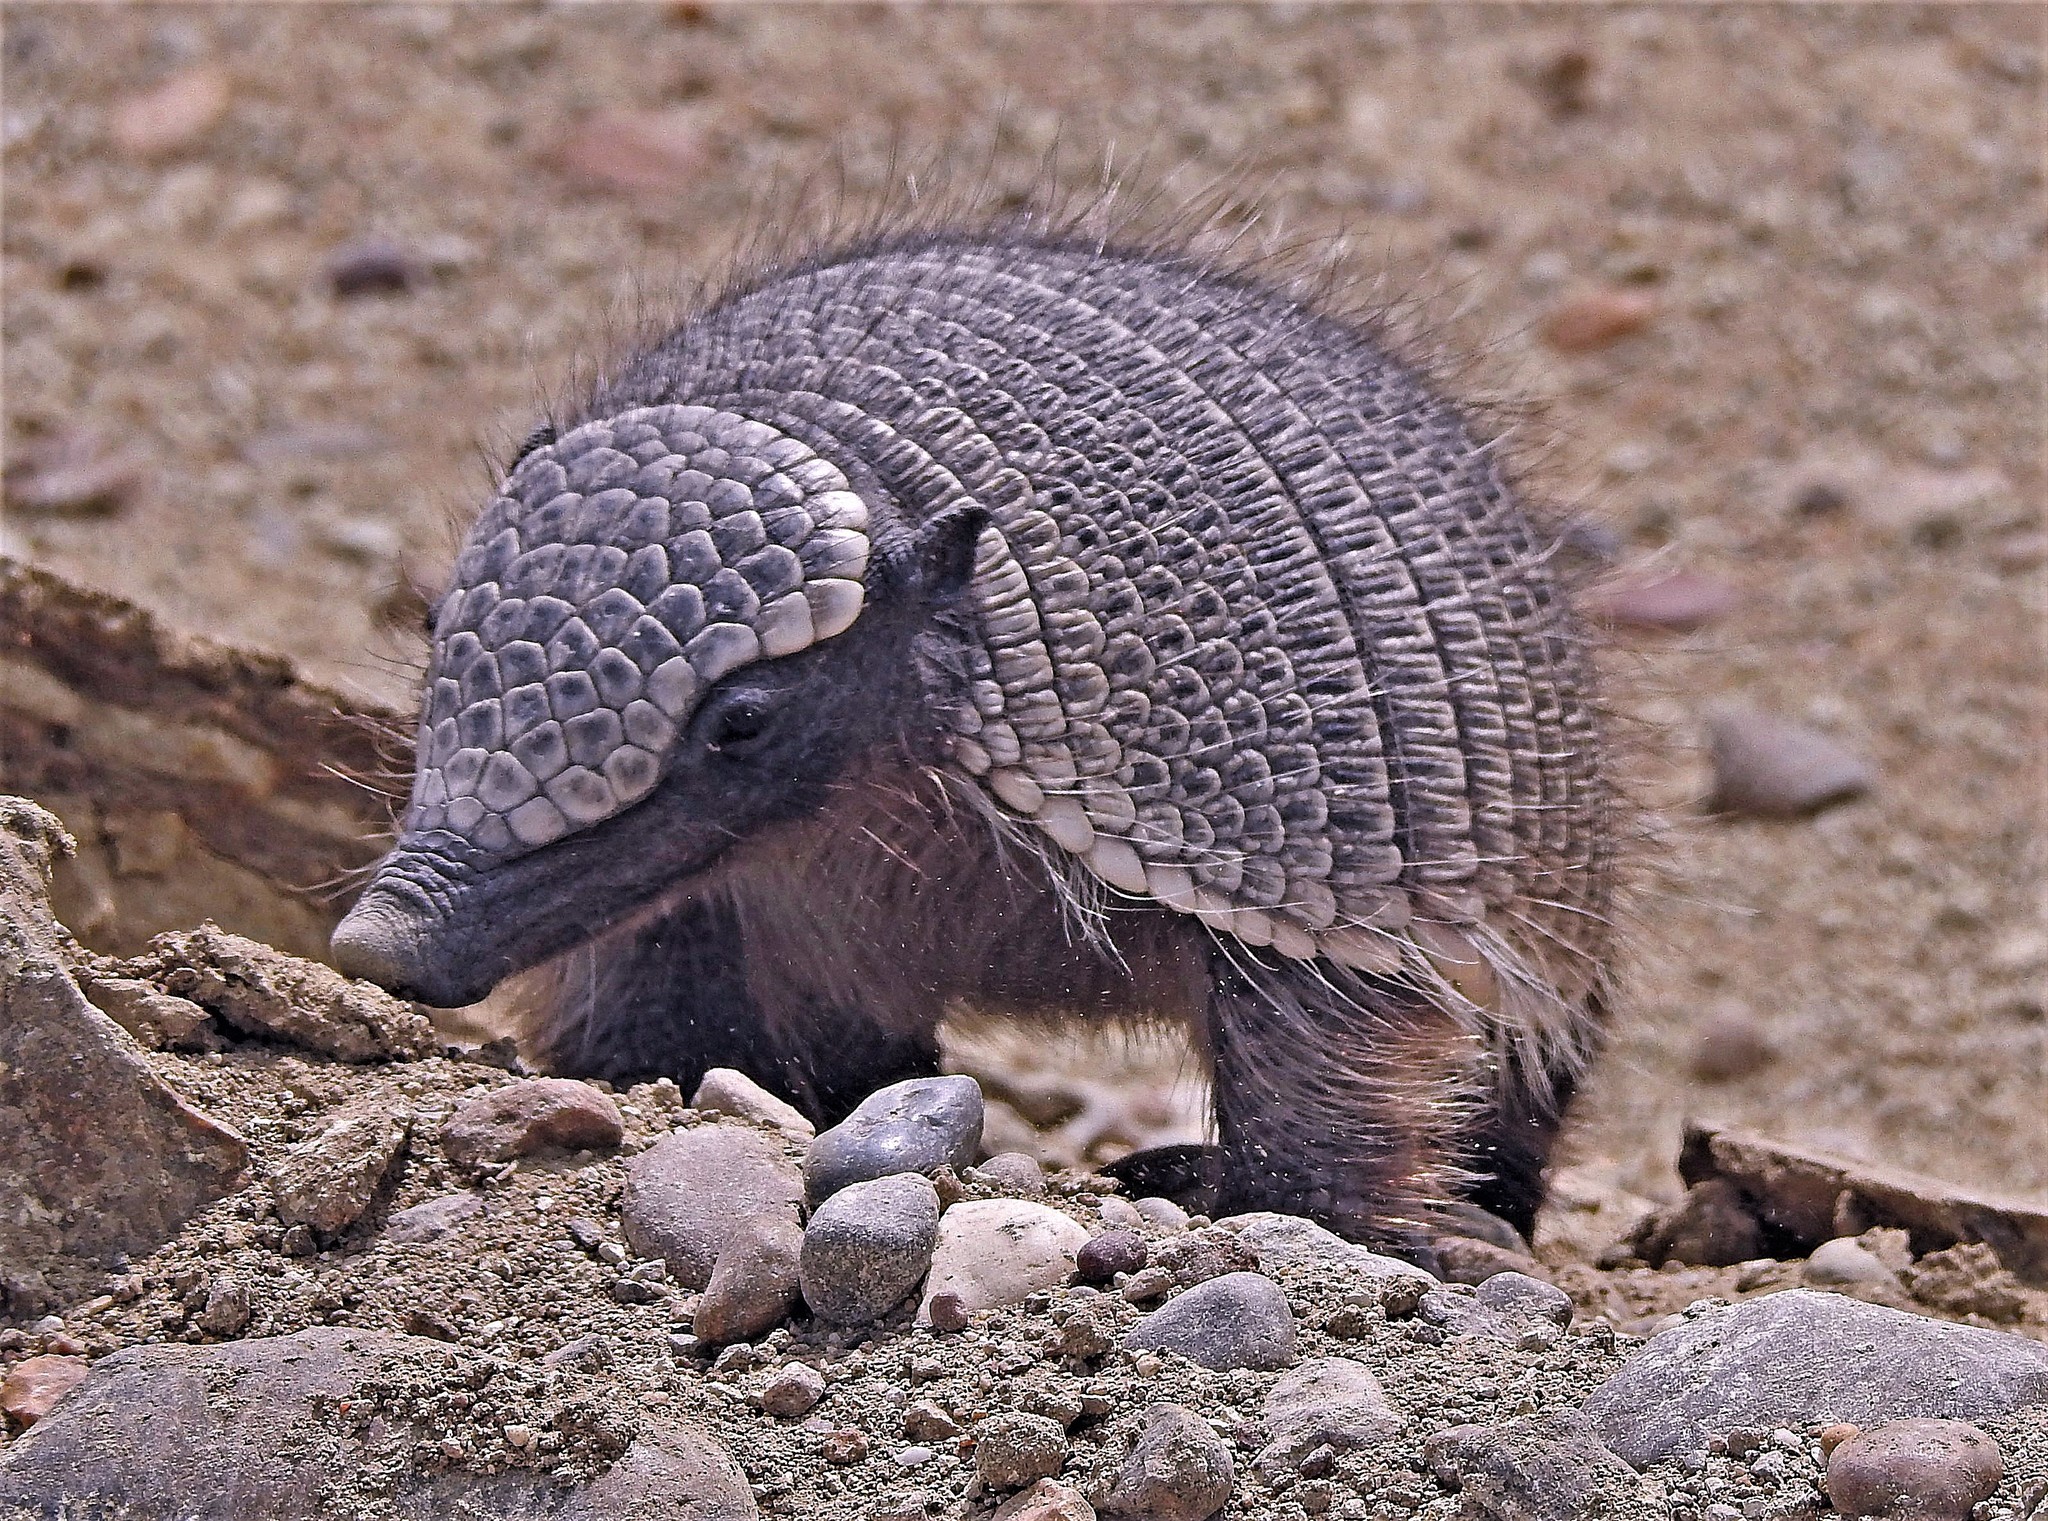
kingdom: Animalia
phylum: Chordata
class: Mammalia
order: Cingulata
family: Dasypodidae
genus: Zaedyus
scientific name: Zaedyus pichiy
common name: Pichi
